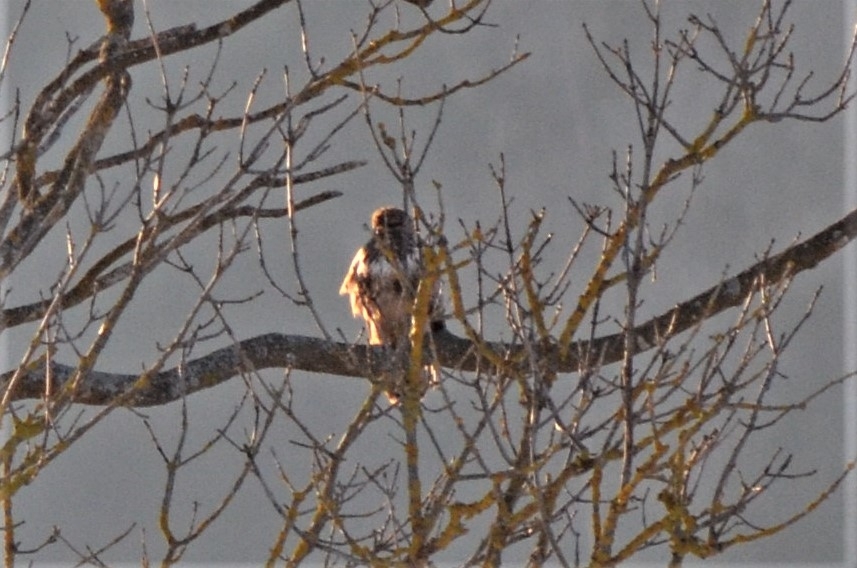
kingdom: Animalia
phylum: Chordata
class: Aves
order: Accipitriformes
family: Accipitridae
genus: Buteo
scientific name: Buteo buteo
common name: Common buzzard
